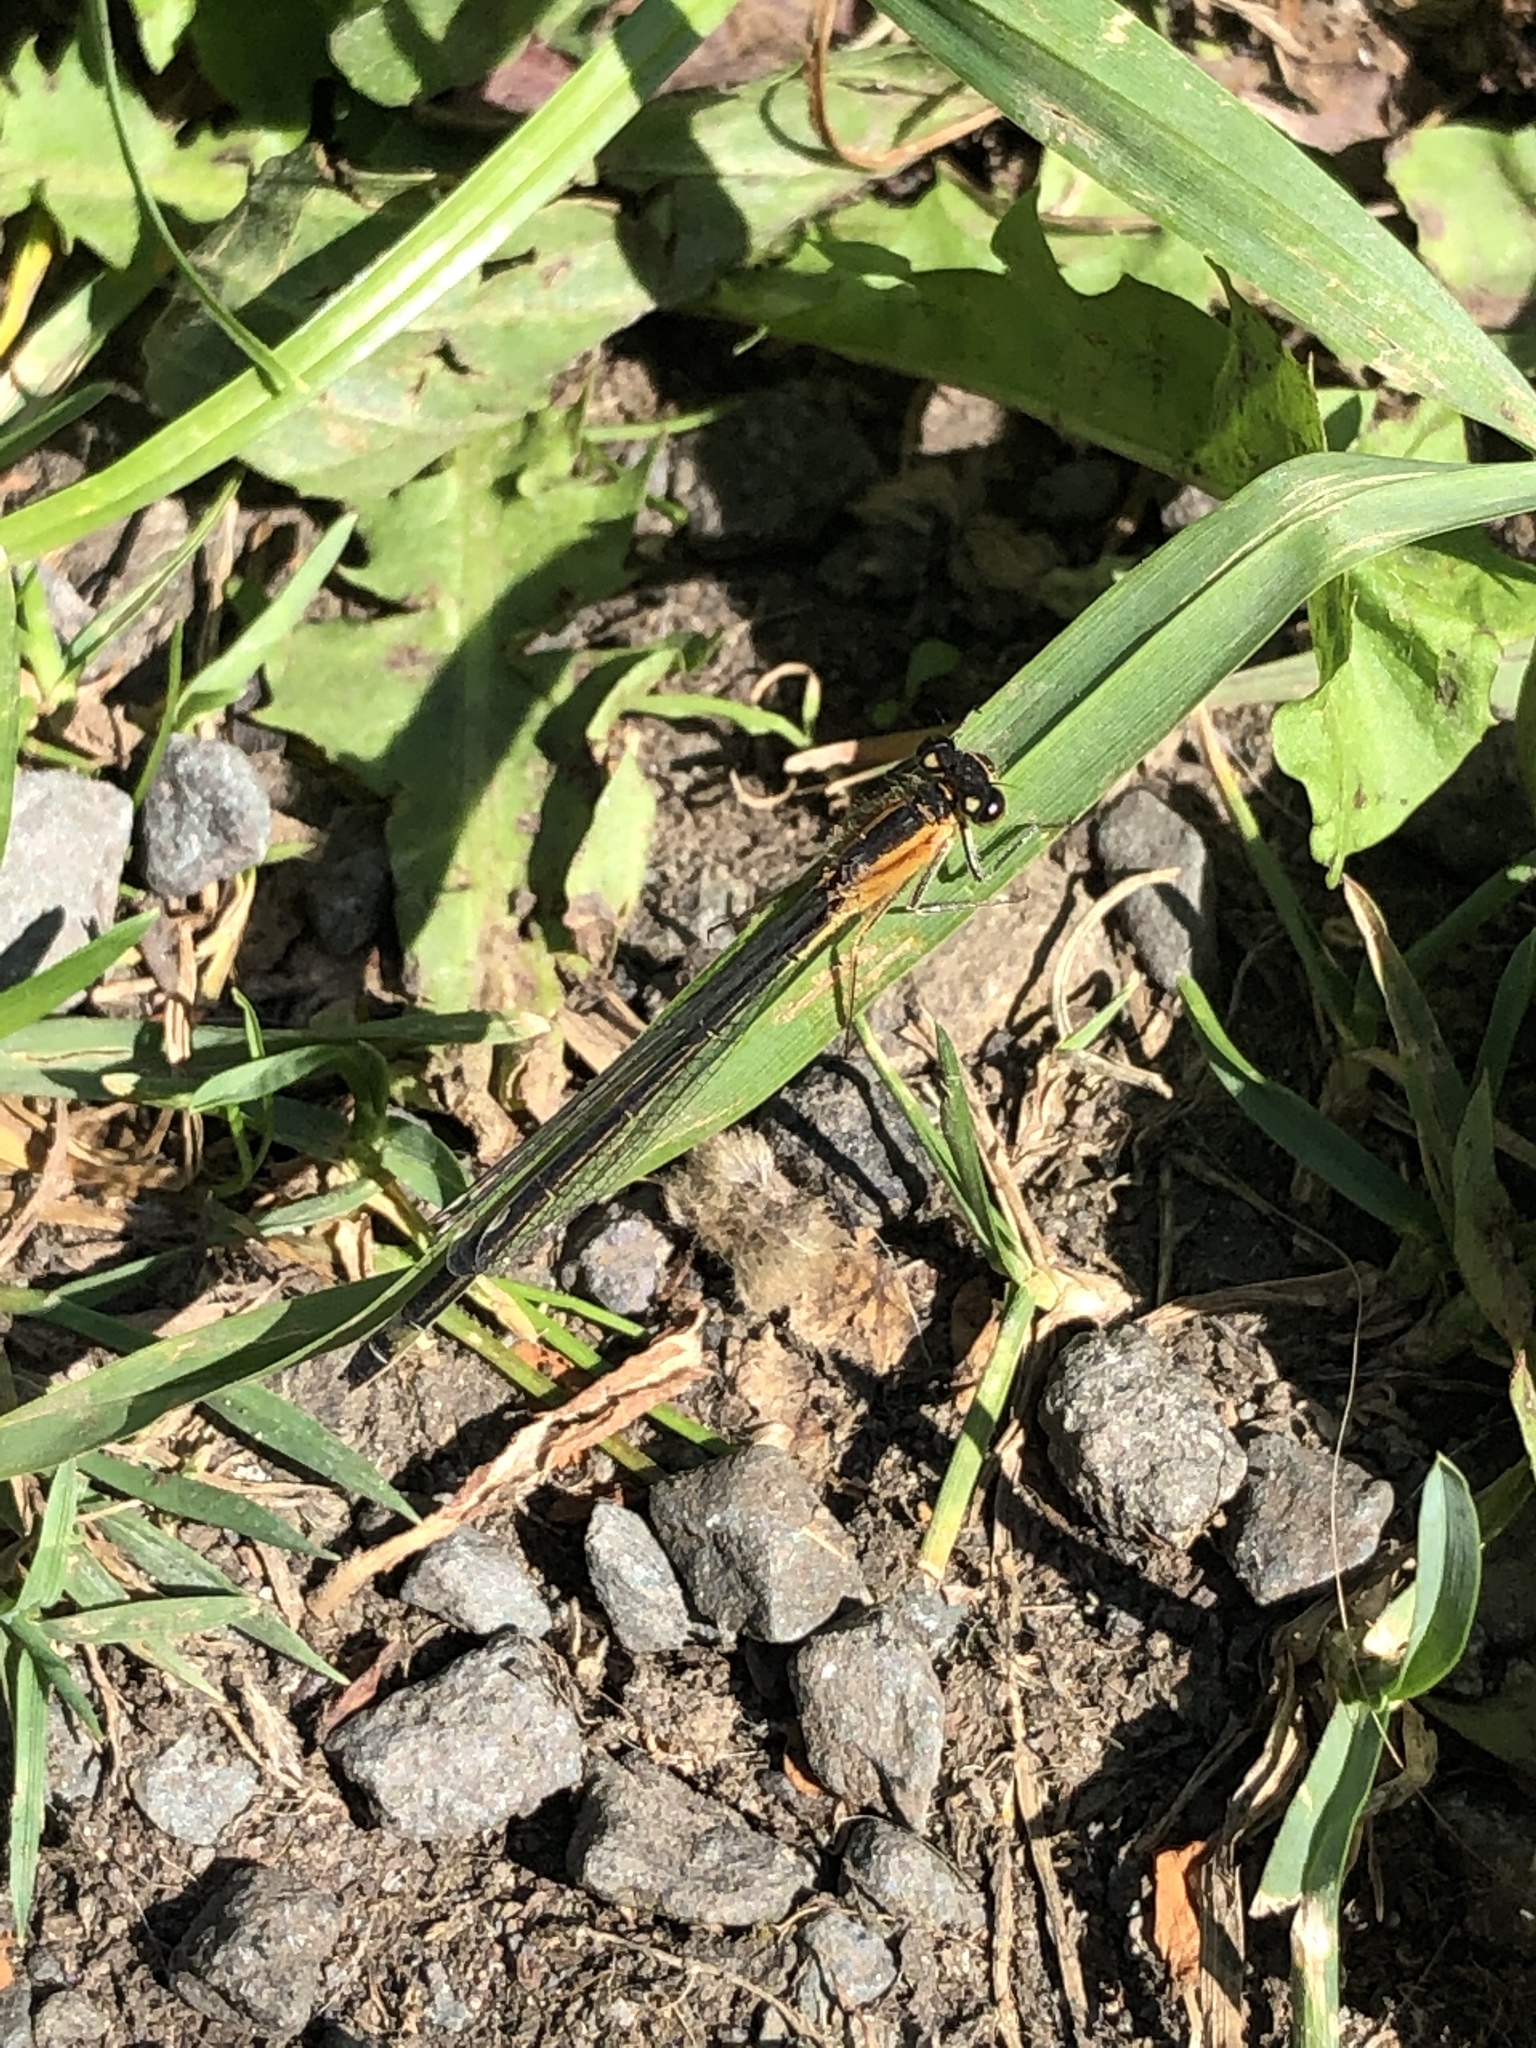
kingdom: Animalia
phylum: Arthropoda
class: Insecta
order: Odonata
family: Coenagrionidae
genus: Ischnura
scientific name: Ischnura elegans
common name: Blue-tailed damselfly
